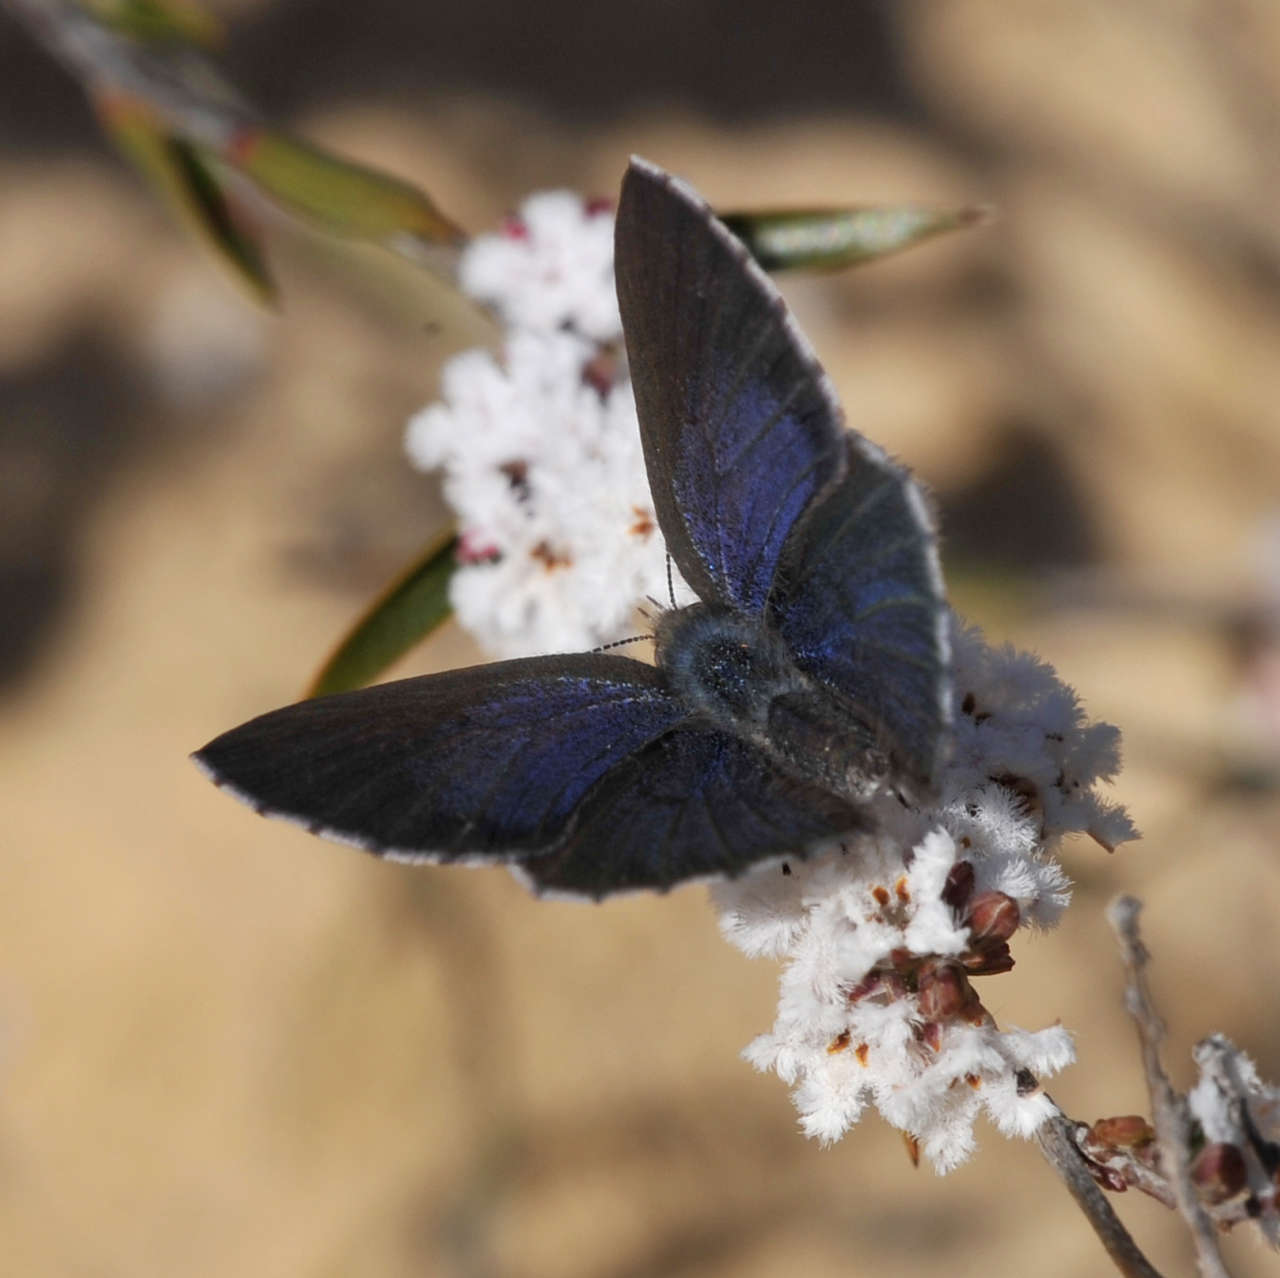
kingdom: Animalia
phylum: Arthropoda
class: Insecta
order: Lepidoptera
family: Lycaenidae
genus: Candalides
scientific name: Candalides
